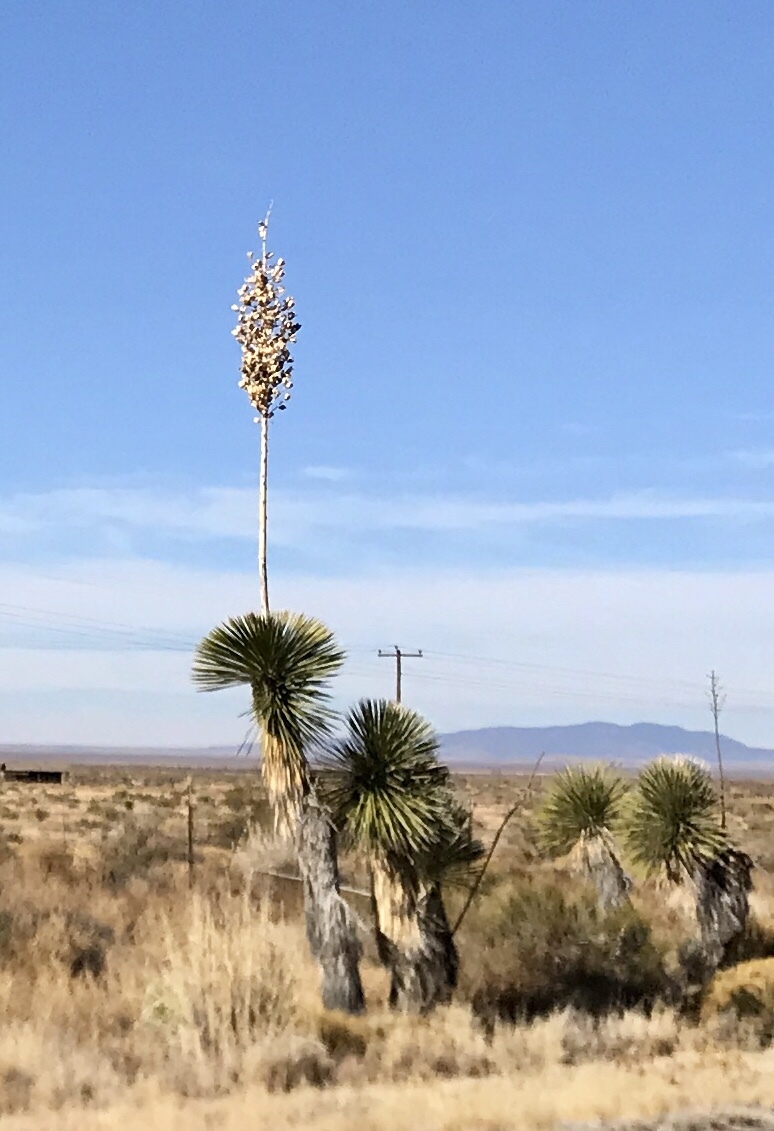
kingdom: Plantae
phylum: Tracheophyta
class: Liliopsida
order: Asparagales
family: Asparagaceae
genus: Yucca
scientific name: Yucca elata
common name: Palmella
